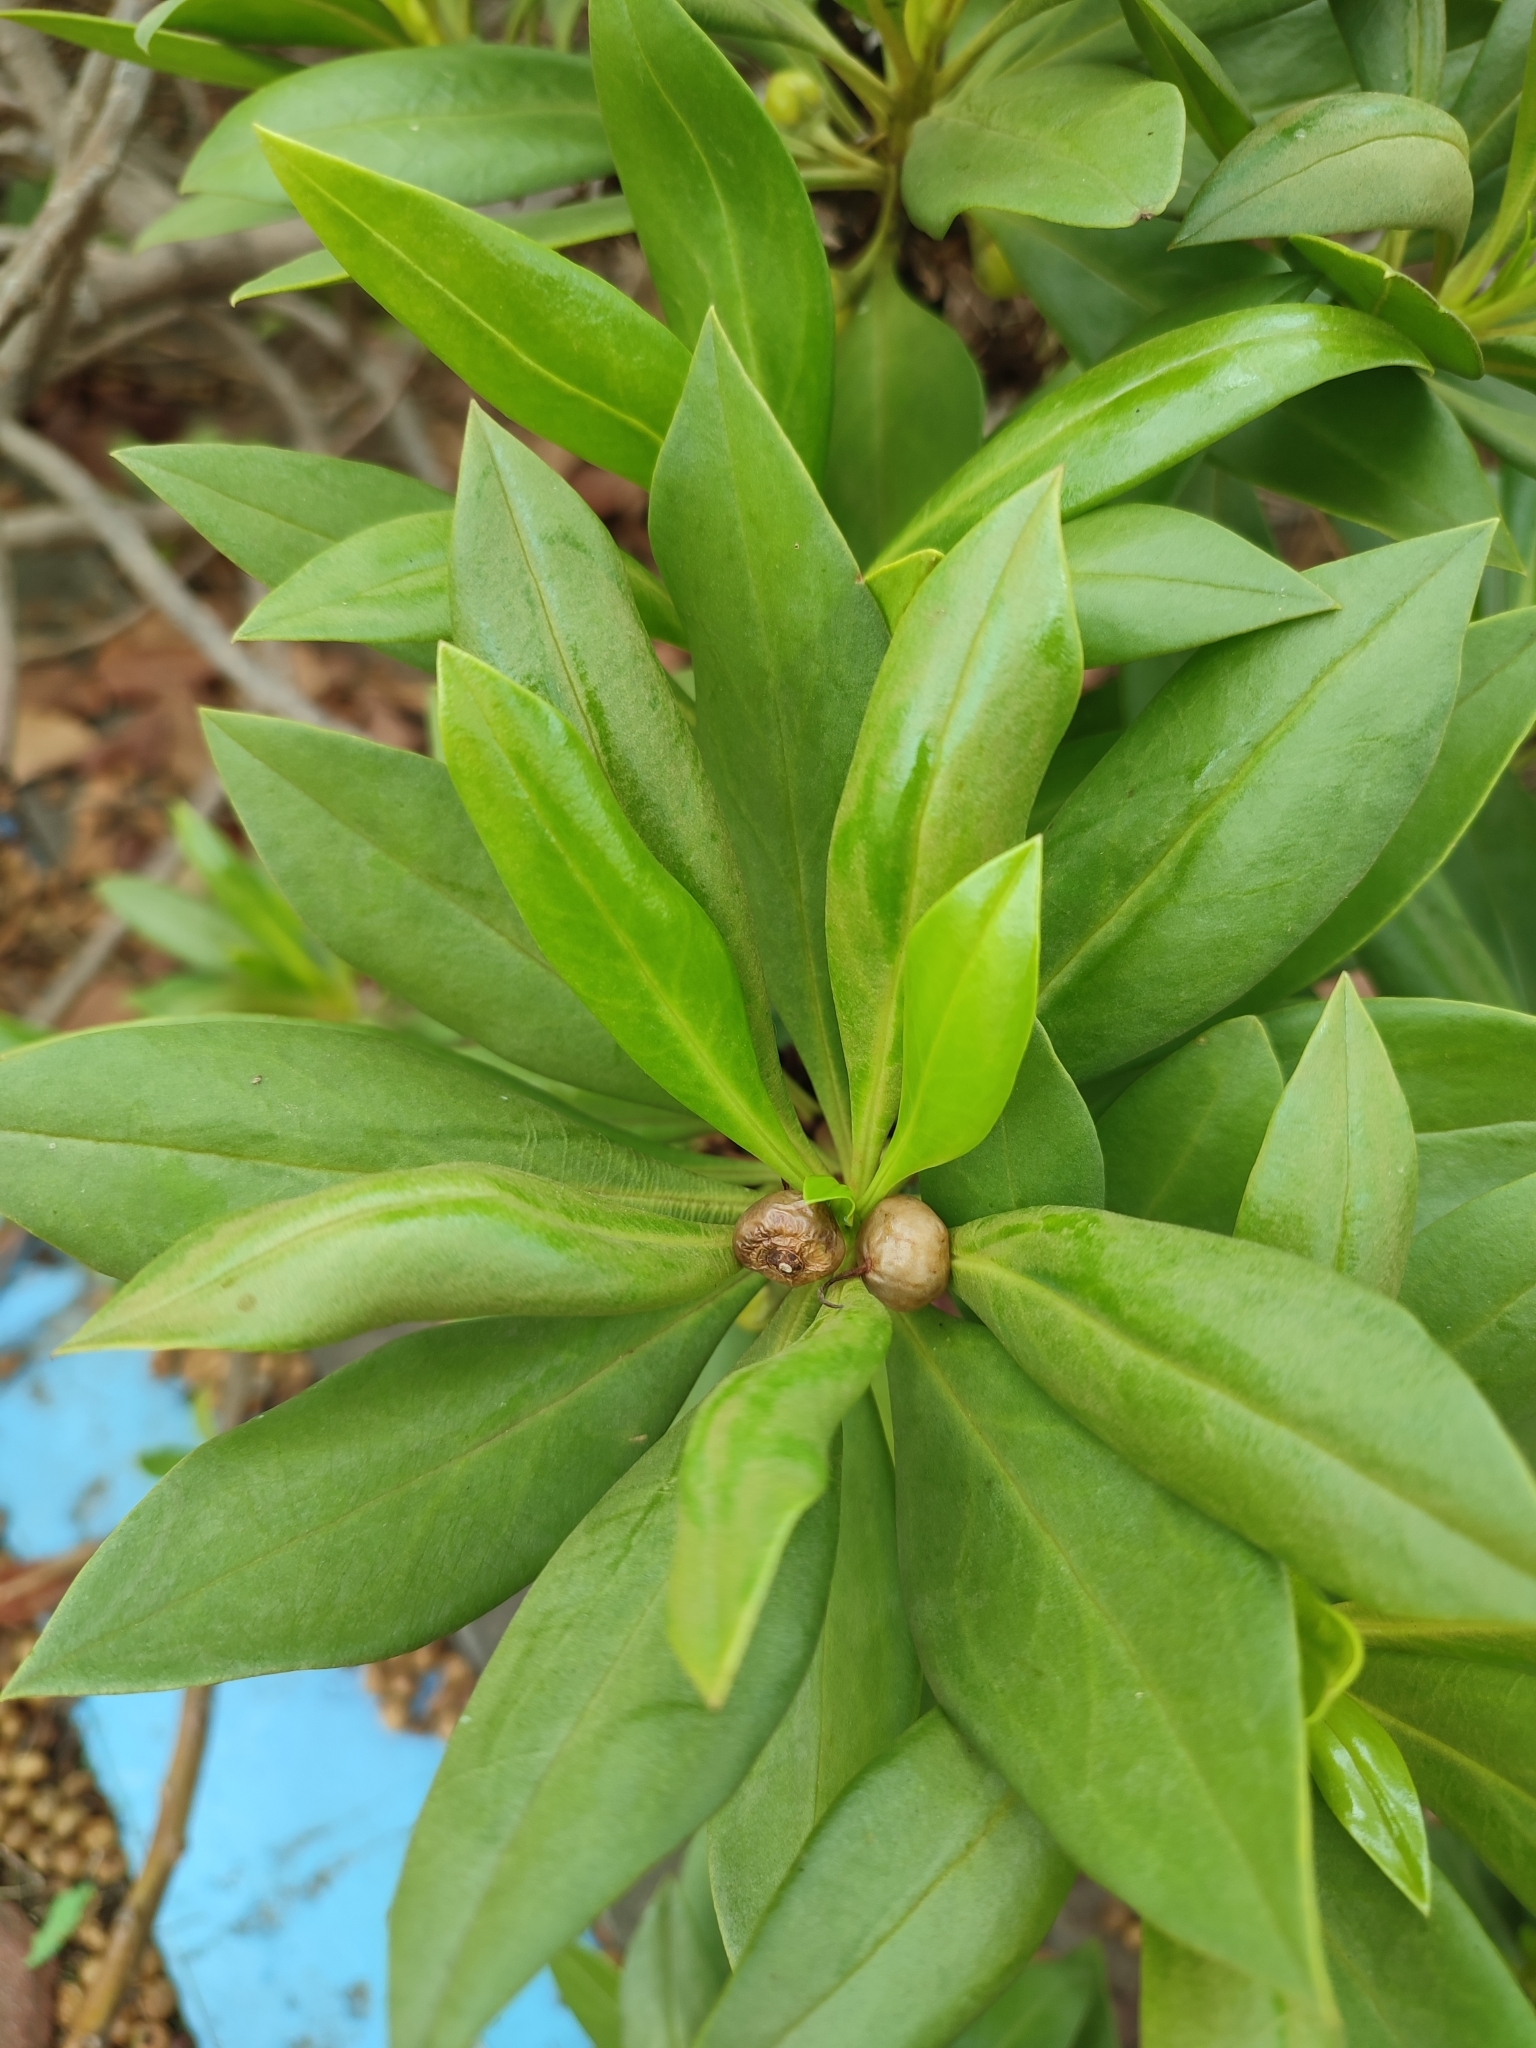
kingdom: Plantae
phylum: Tracheophyta
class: Magnoliopsida
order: Lamiales
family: Scrophulariaceae
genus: Myoporum
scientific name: Myoporum bontioides
